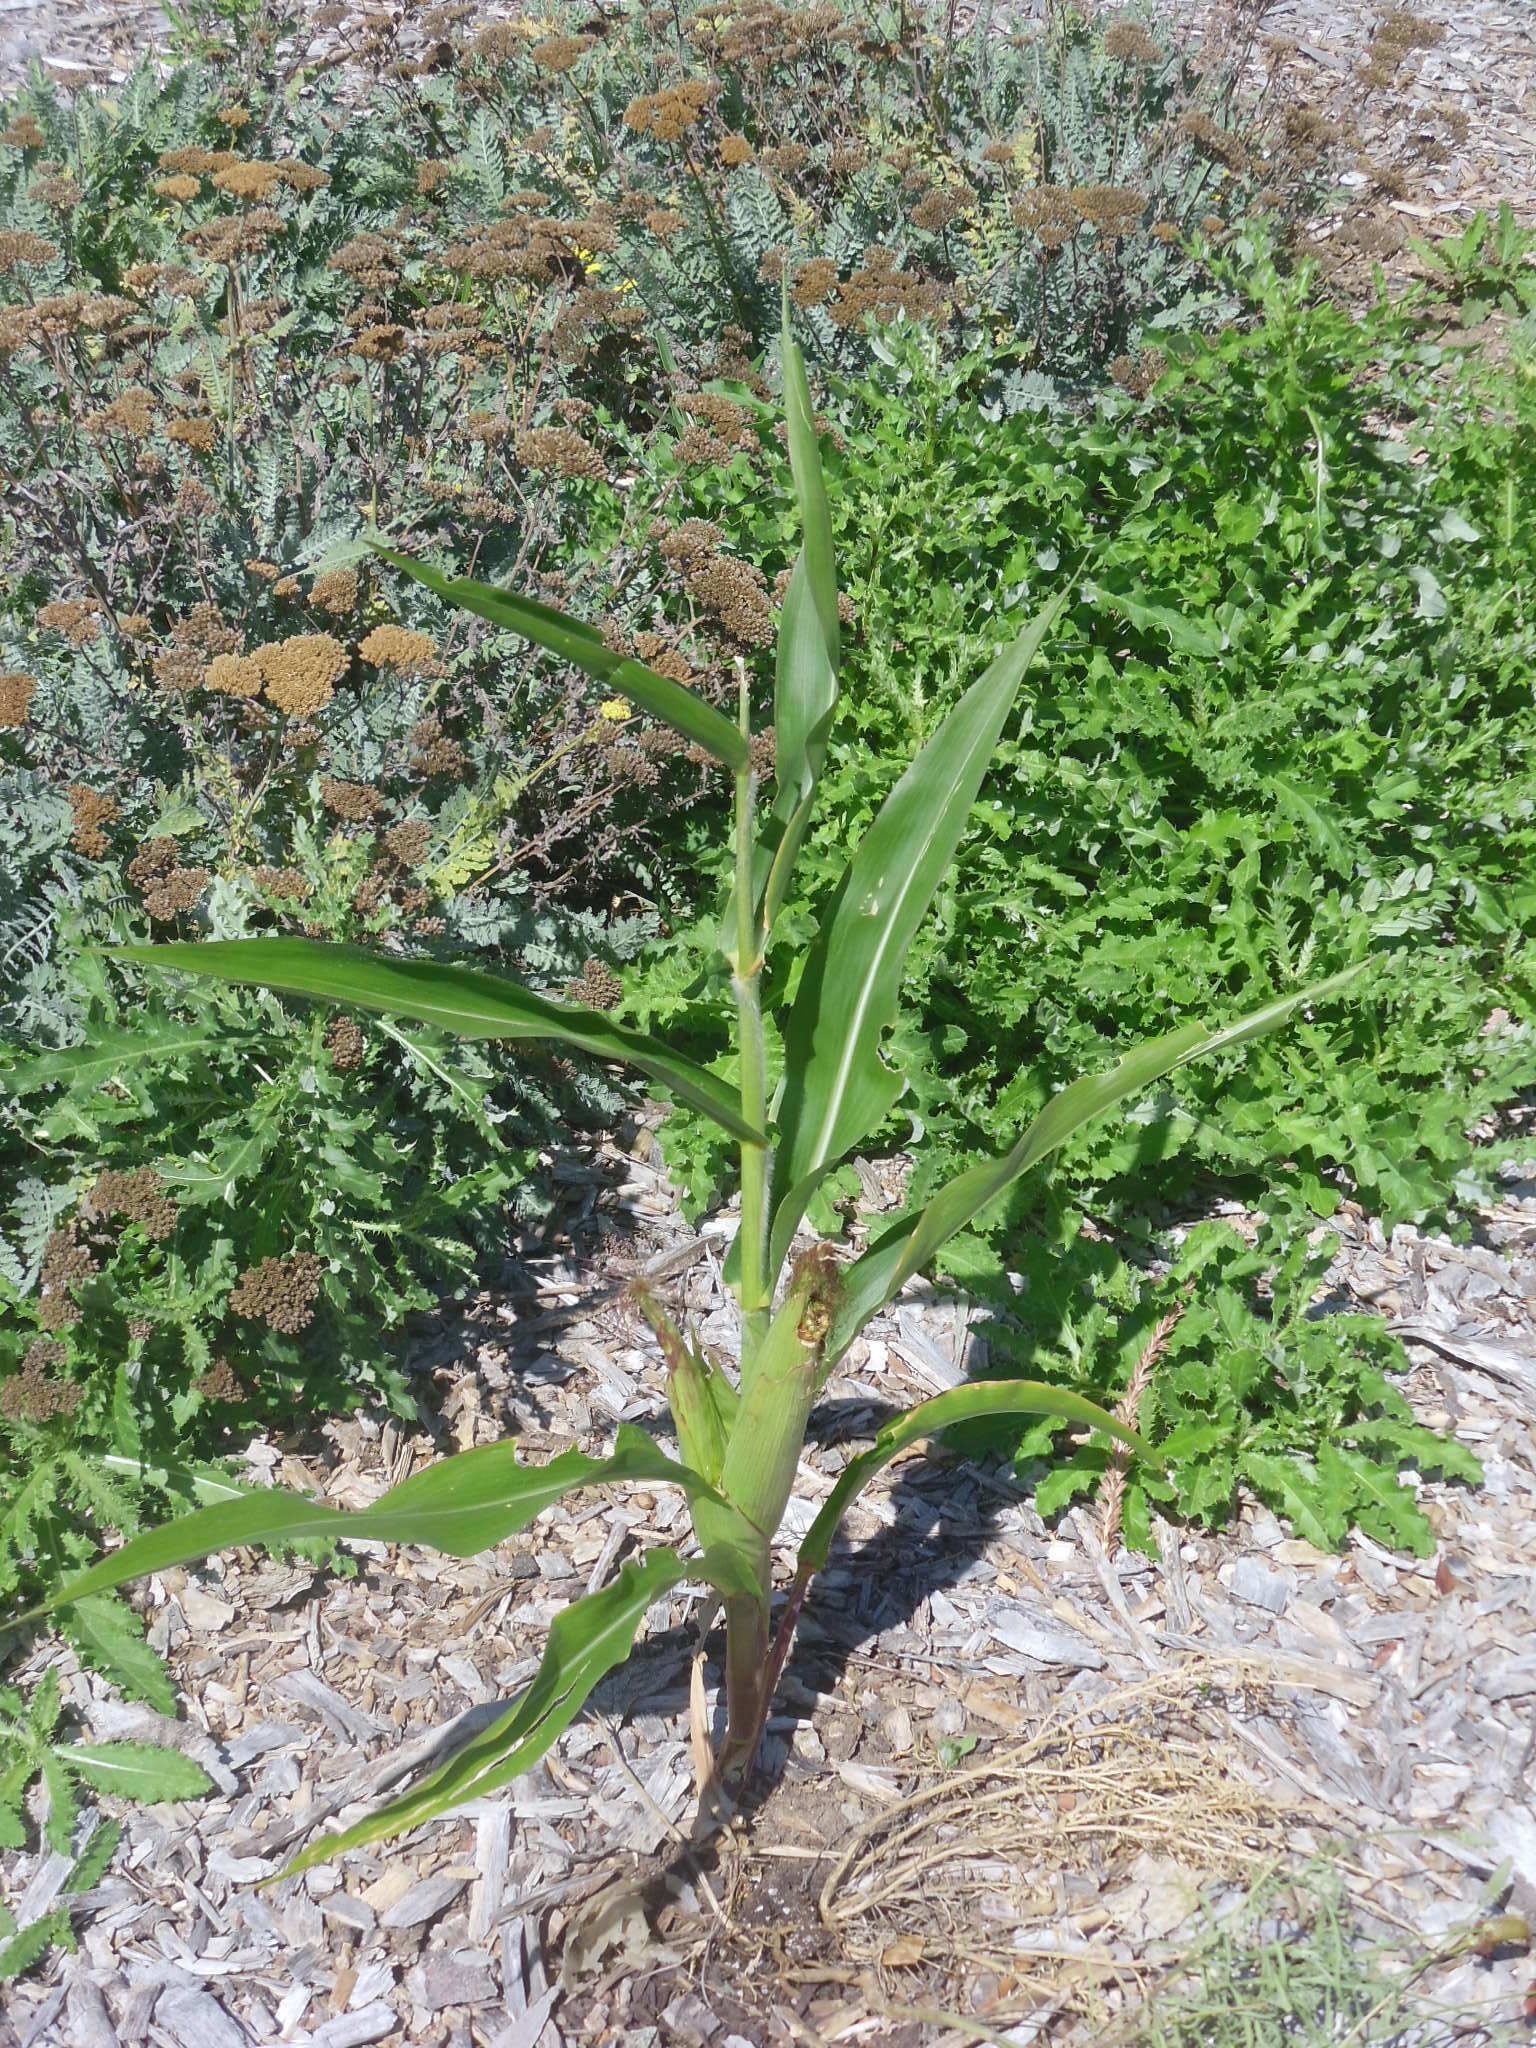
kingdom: Plantae
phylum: Tracheophyta
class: Liliopsida
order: Poales
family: Poaceae
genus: Zea
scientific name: Zea mays
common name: Maize
